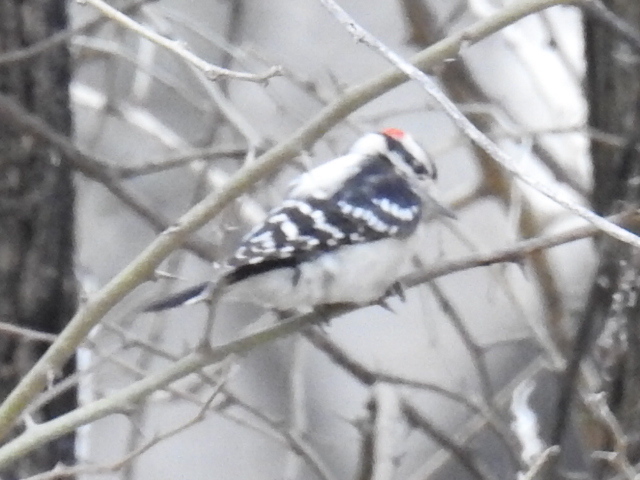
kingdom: Animalia
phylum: Chordata
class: Aves
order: Piciformes
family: Picidae
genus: Dryobates
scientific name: Dryobates pubescens
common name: Downy woodpecker
